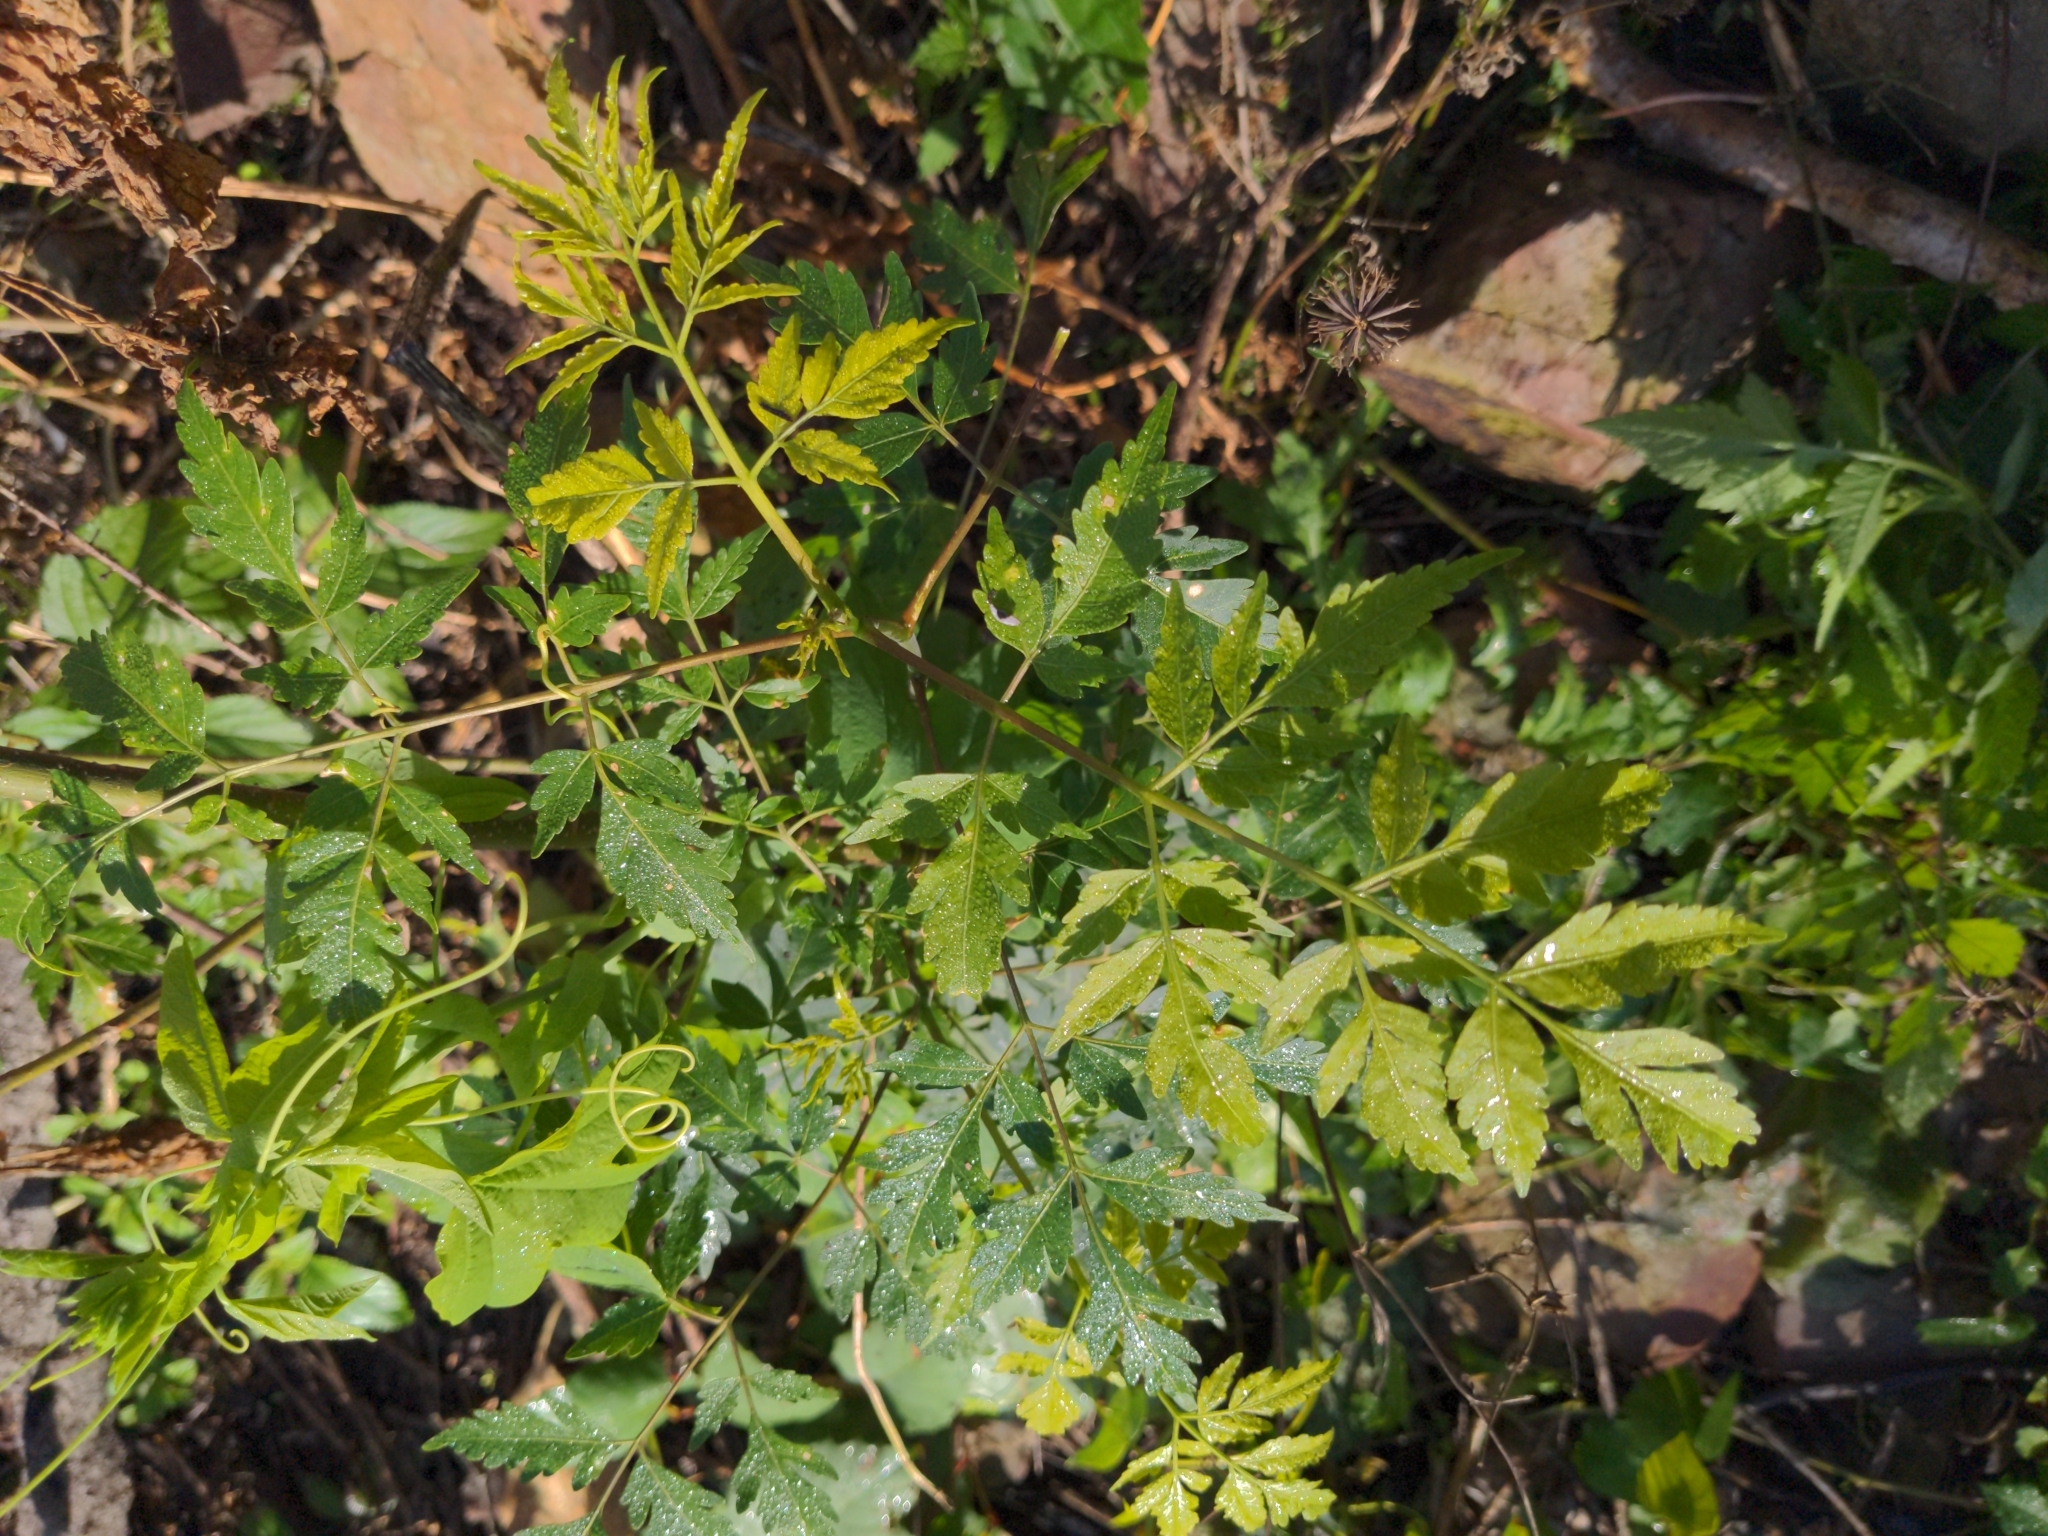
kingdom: Plantae
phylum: Tracheophyta
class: Magnoliopsida
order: Sapindales
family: Meliaceae
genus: Melia
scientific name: Melia azedarach
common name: Chinaberrytree
